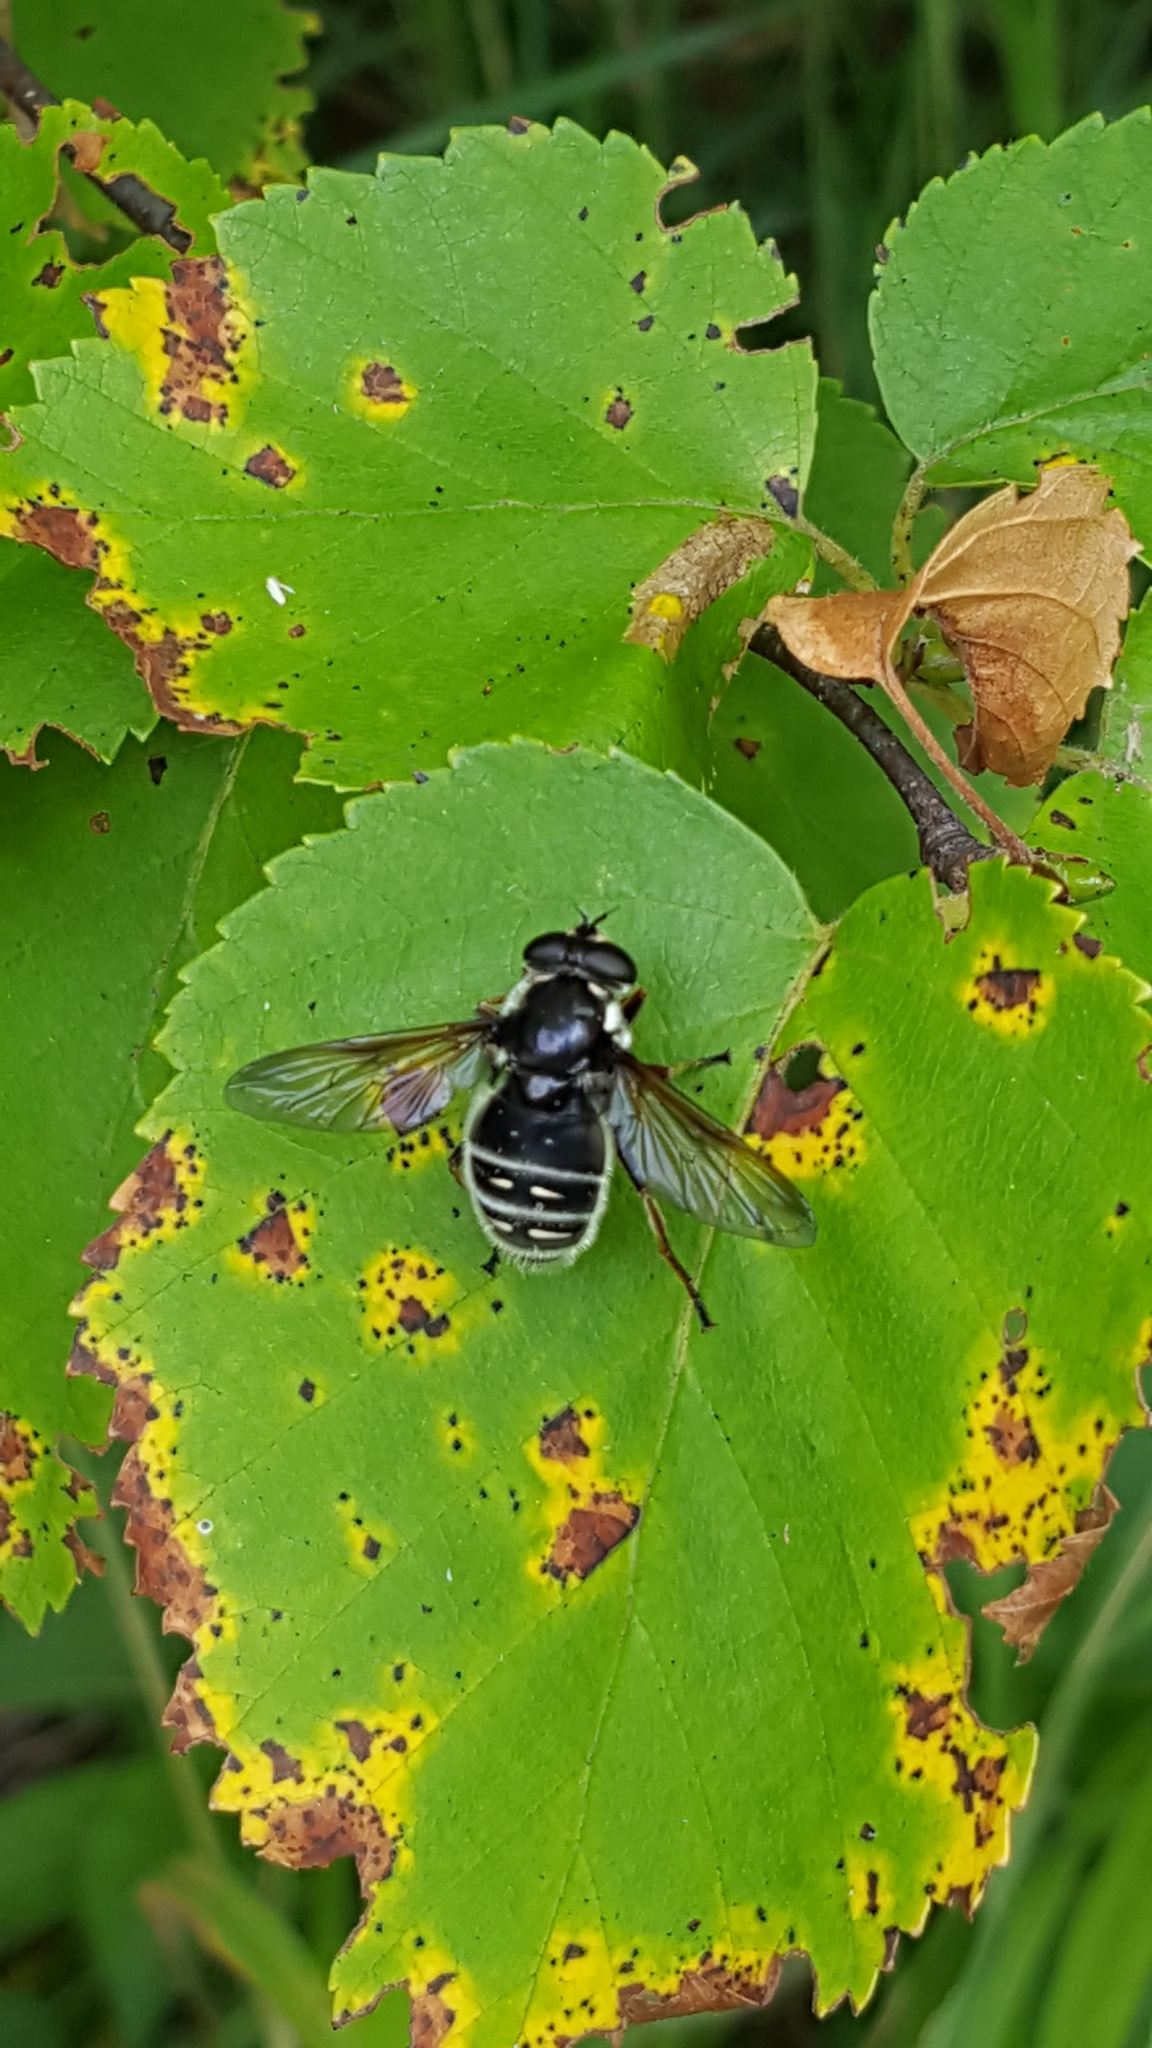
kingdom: Animalia
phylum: Arthropoda
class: Insecta
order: Diptera
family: Syrphidae
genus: Sericomyia
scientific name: Sericomyia militaris
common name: Narrow-banded pond fly
